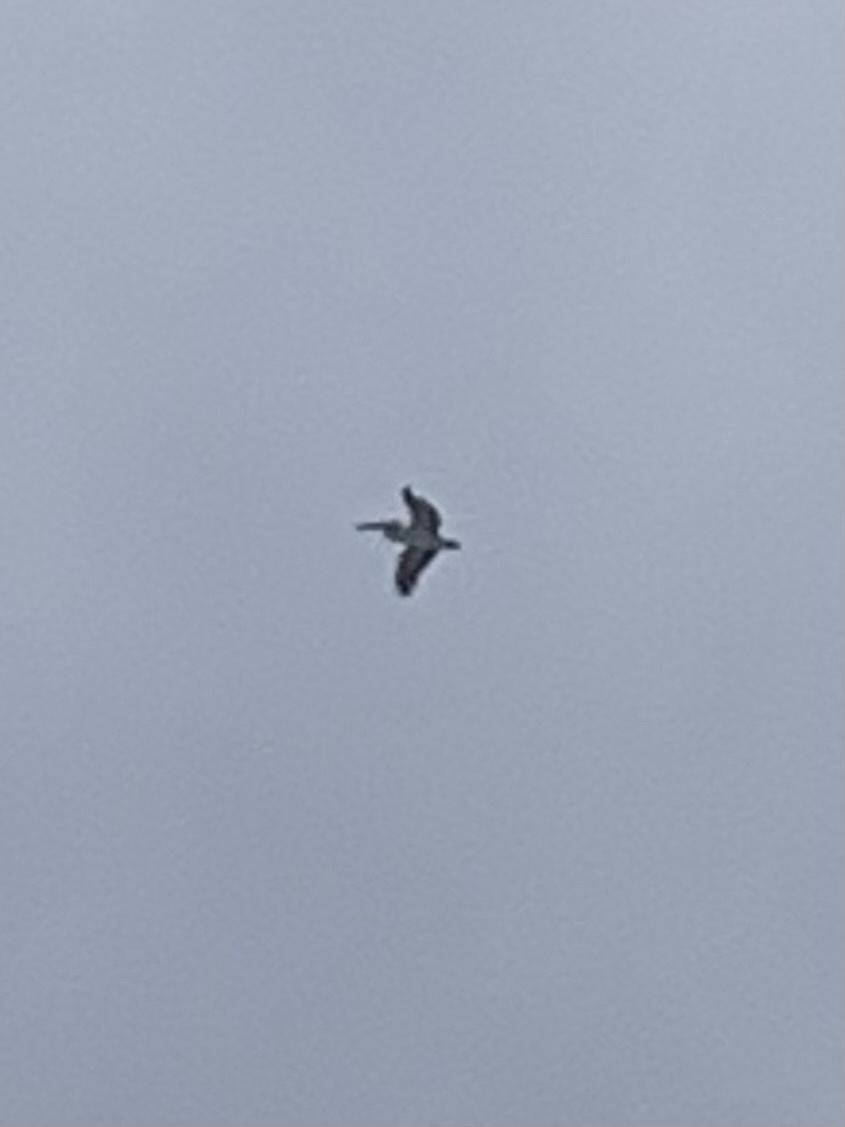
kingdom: Animalia
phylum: Chordata
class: Aves
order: Pelecaniformes
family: Pelecanidae
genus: Pelecanus
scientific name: Pelecanus conspicillatus
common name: Australian pelican
